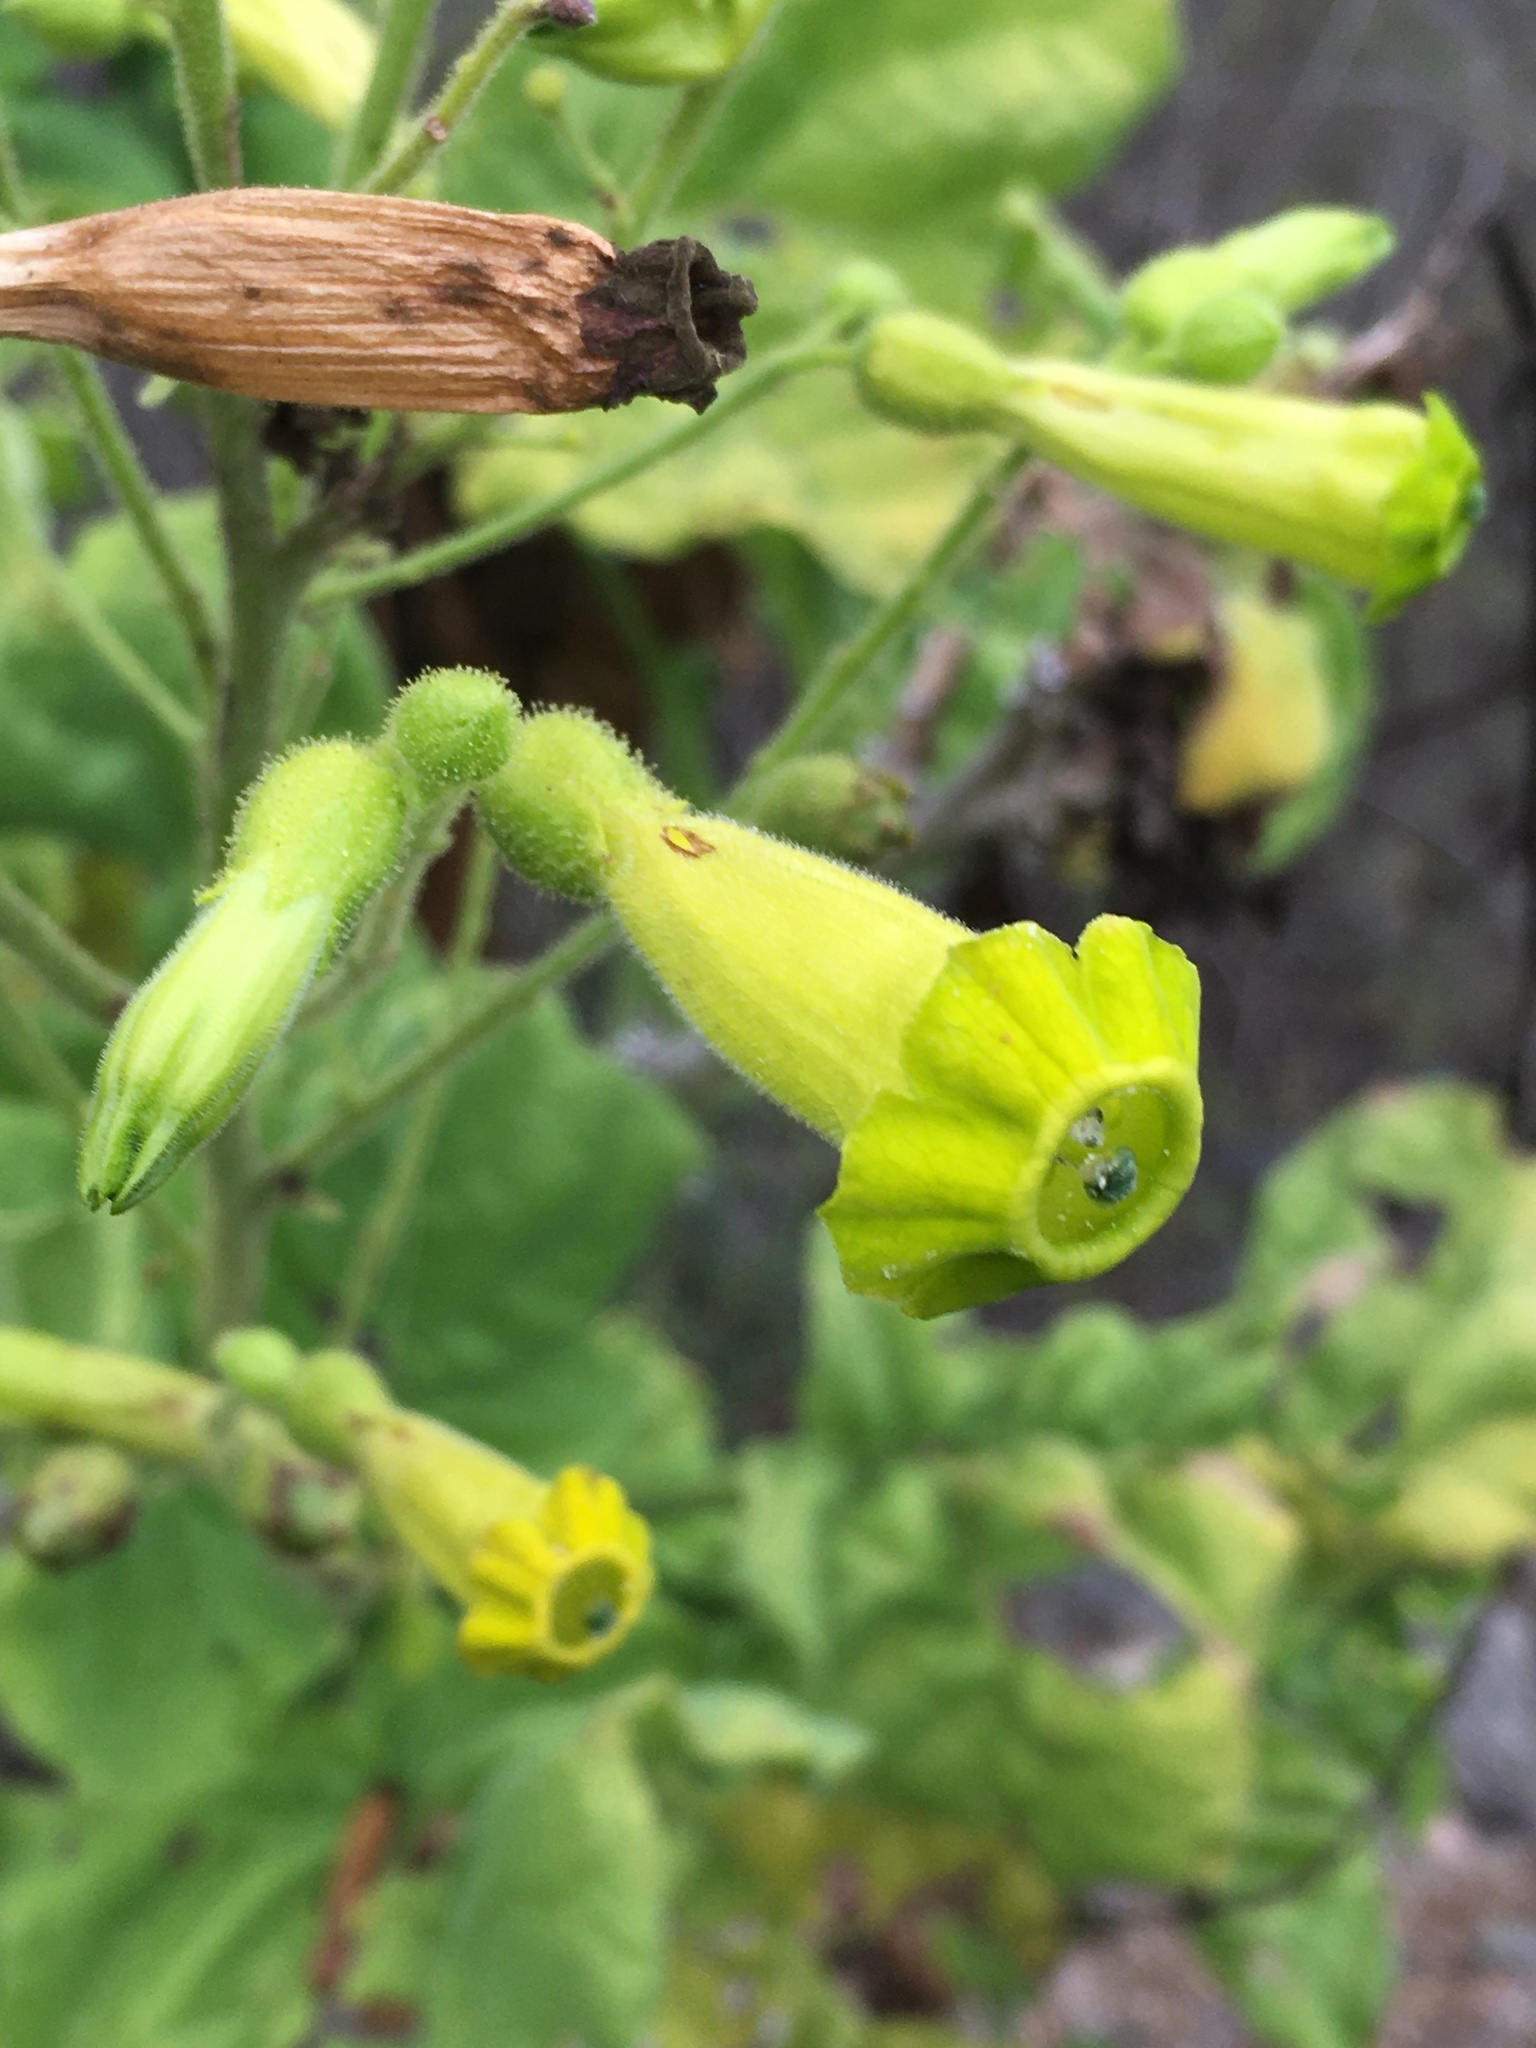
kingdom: Plantae
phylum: Tracheophyta
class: Magnoliopsida
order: Solanales
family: Solanaceae
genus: Nicotiana
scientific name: Nicotiana solanifolia
